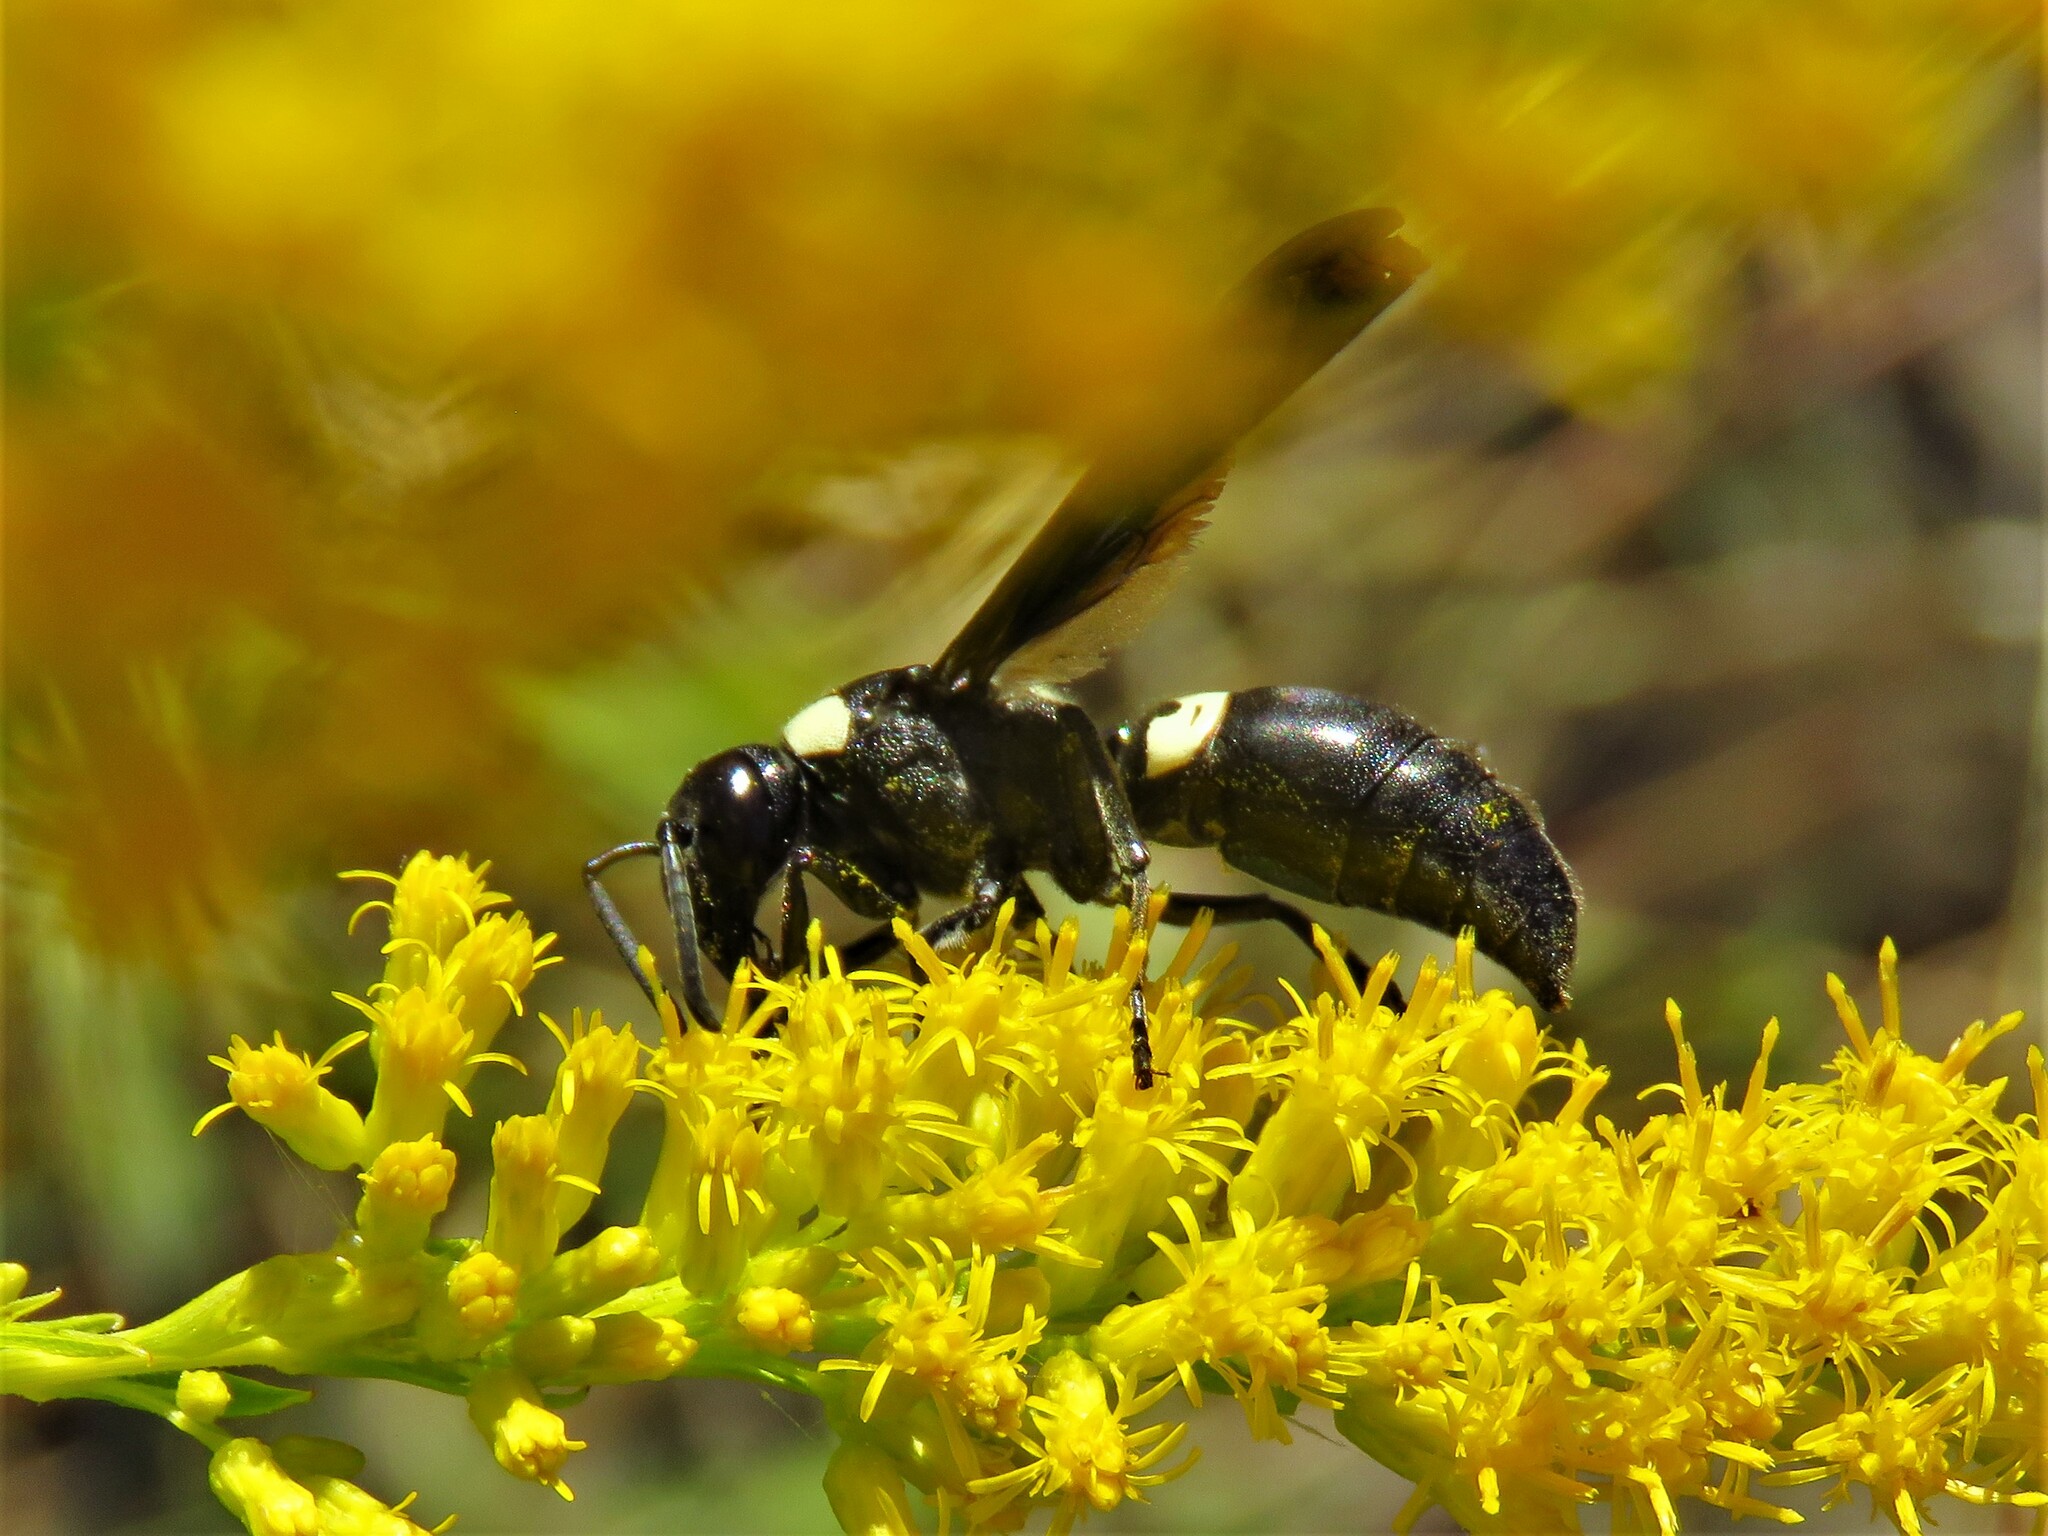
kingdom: Animalia
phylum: Arthropoda
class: Insecta
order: Hymenoptera
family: Eumenidae
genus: Monobia
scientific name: Monobia quadridens
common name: Four-toothed mason wasp
